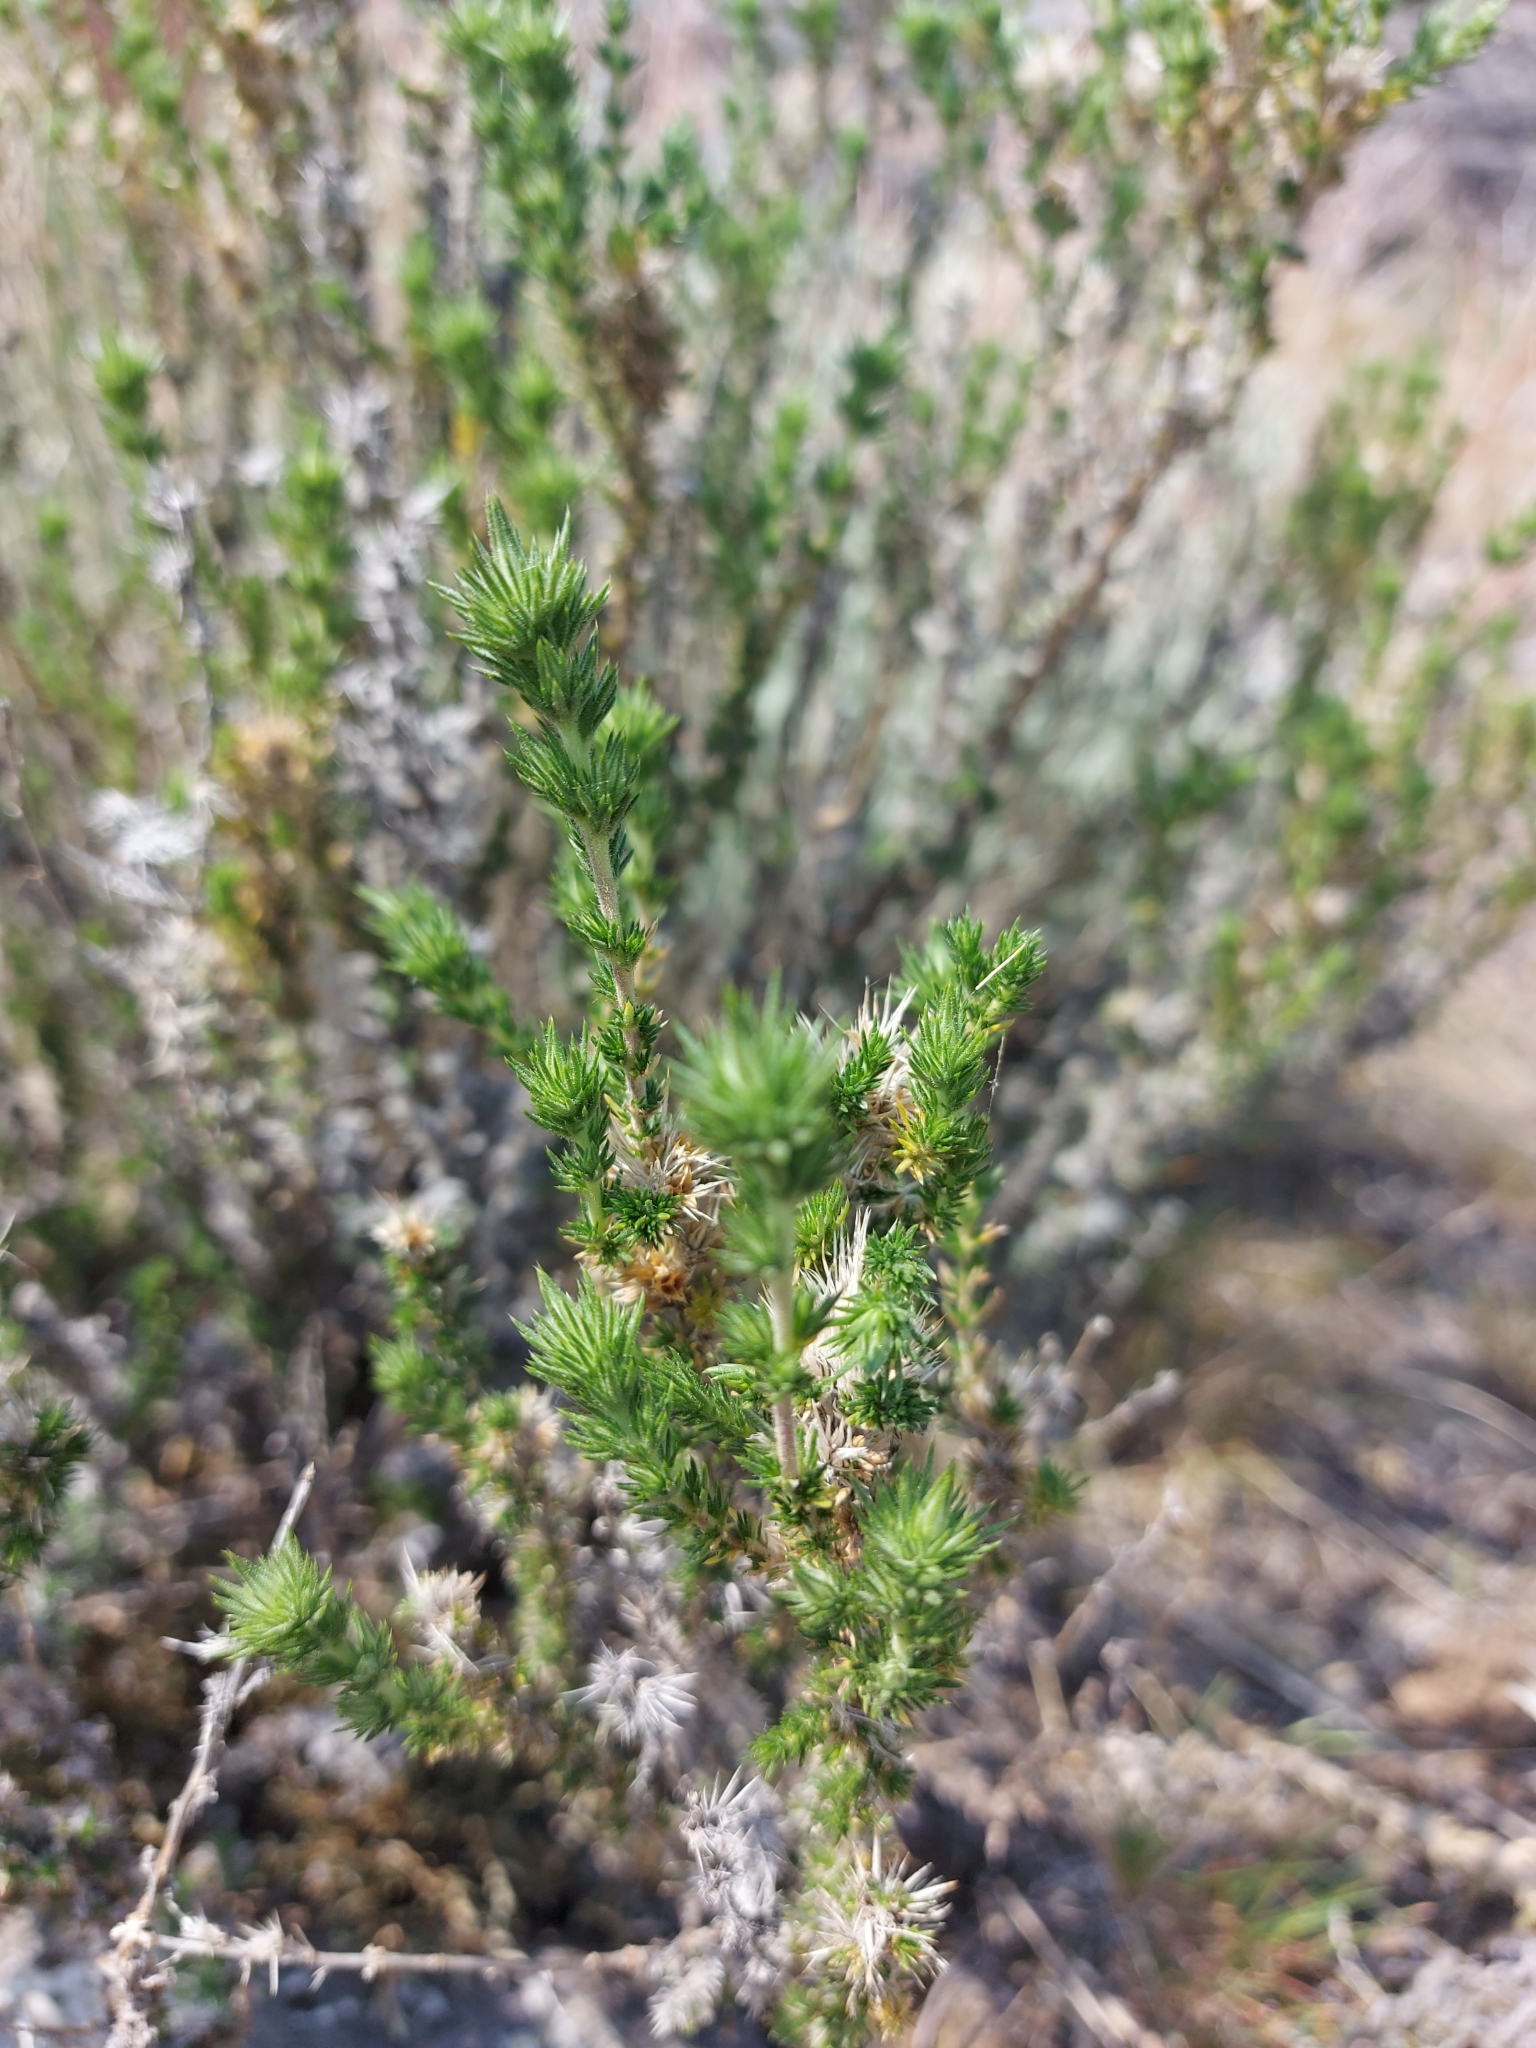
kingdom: Plantae
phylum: Tracheophyta
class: Magnoliopsida
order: Ericales
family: Polemoniaceae
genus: Linanthus
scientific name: Linanthus pungens
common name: Granite prickly phlox
